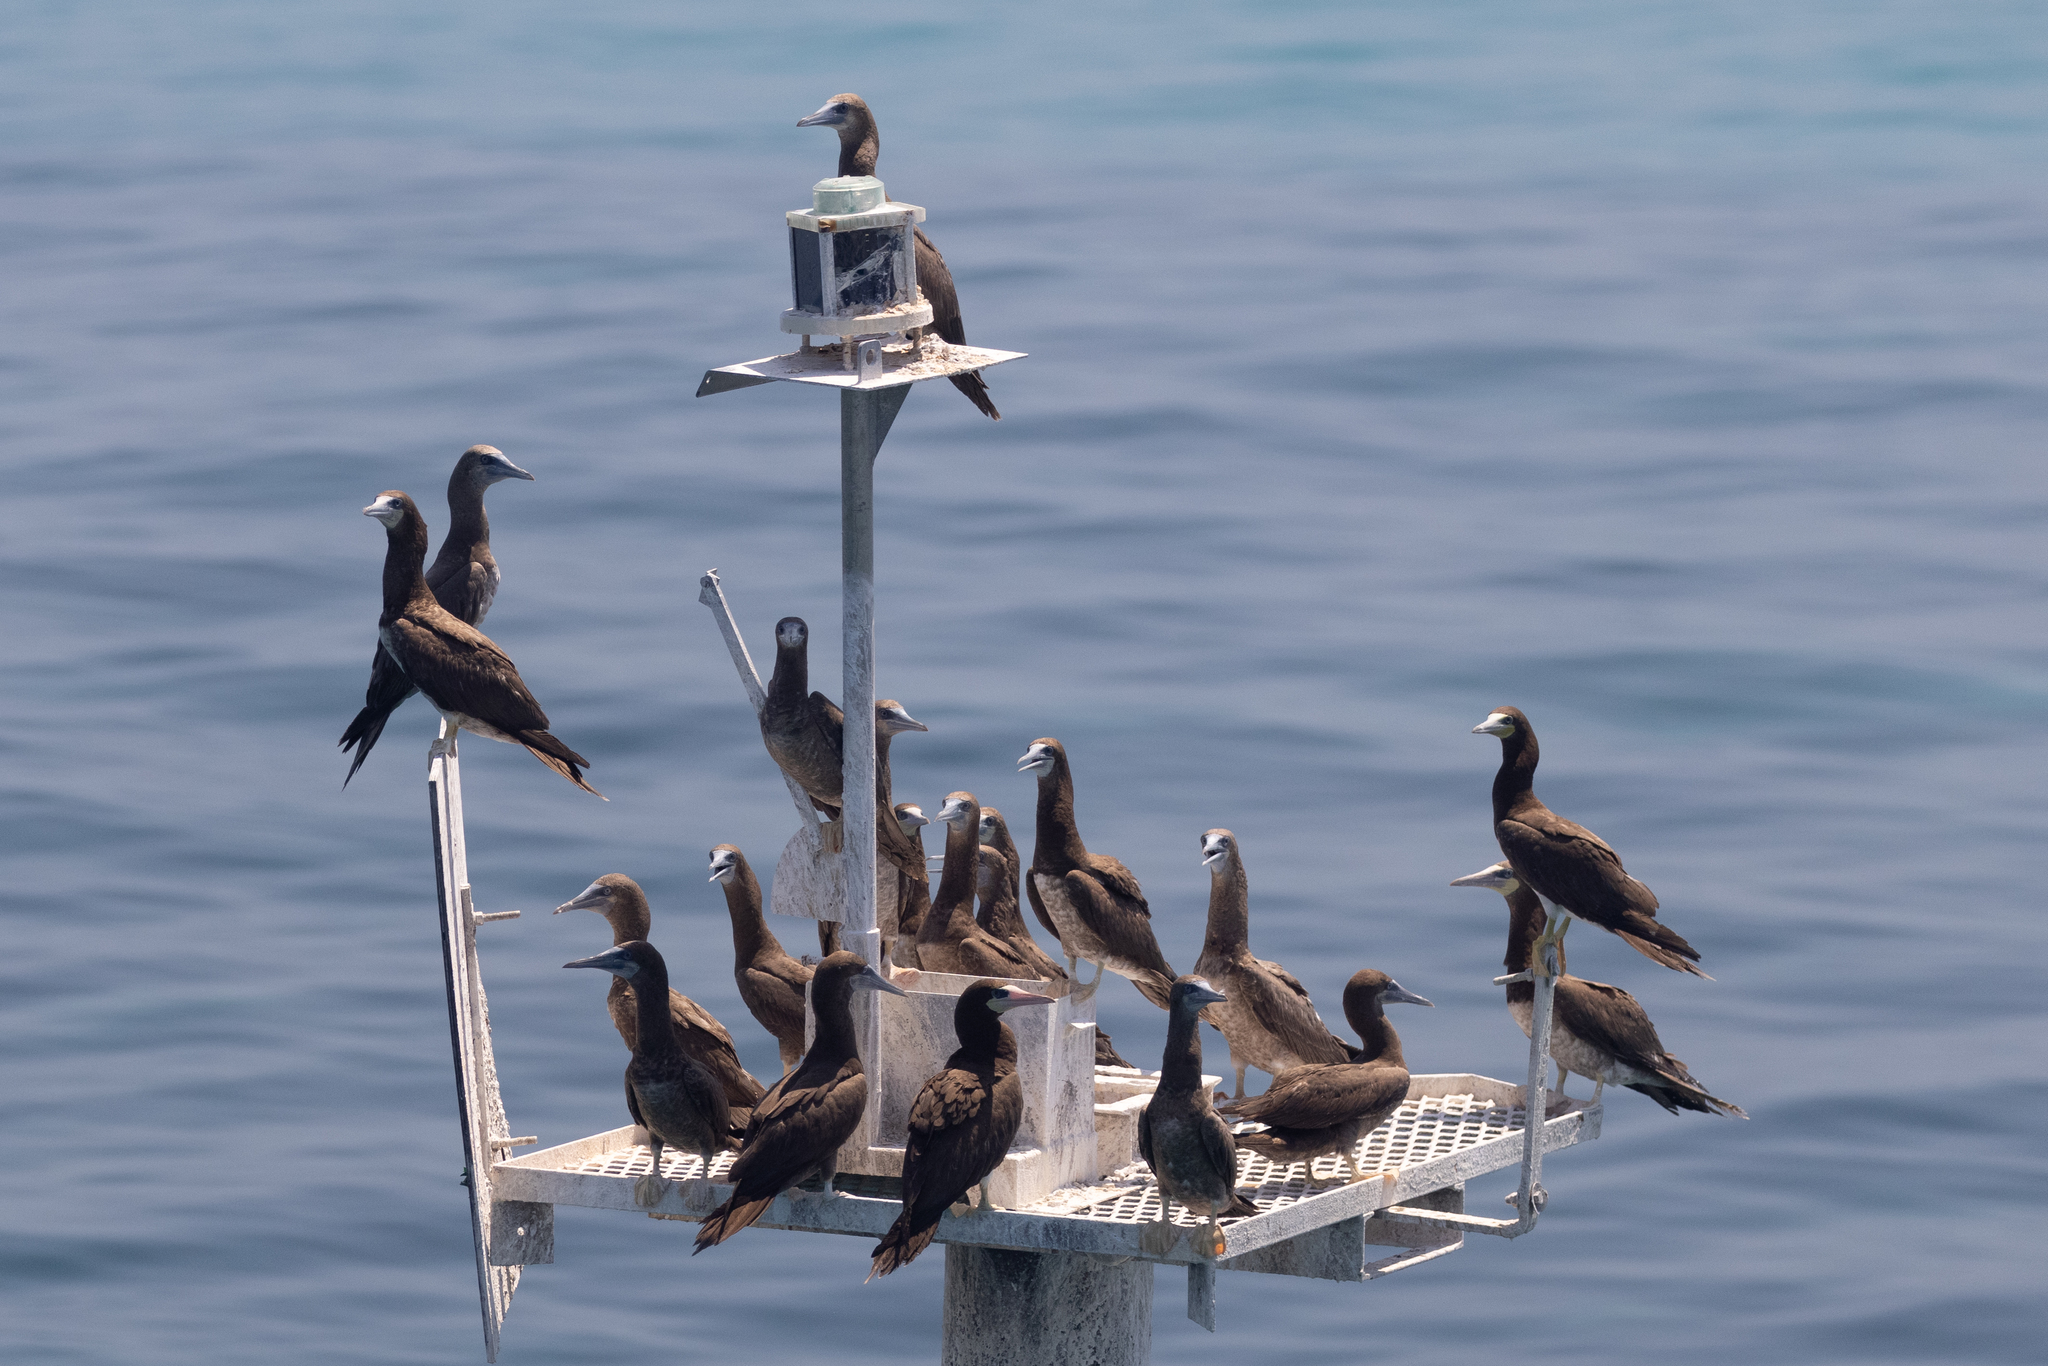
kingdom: Animalia
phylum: Chordata
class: Aves
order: Suliformes
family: Sulidae
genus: Sula
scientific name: Sula leucogaster
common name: Brown booby
